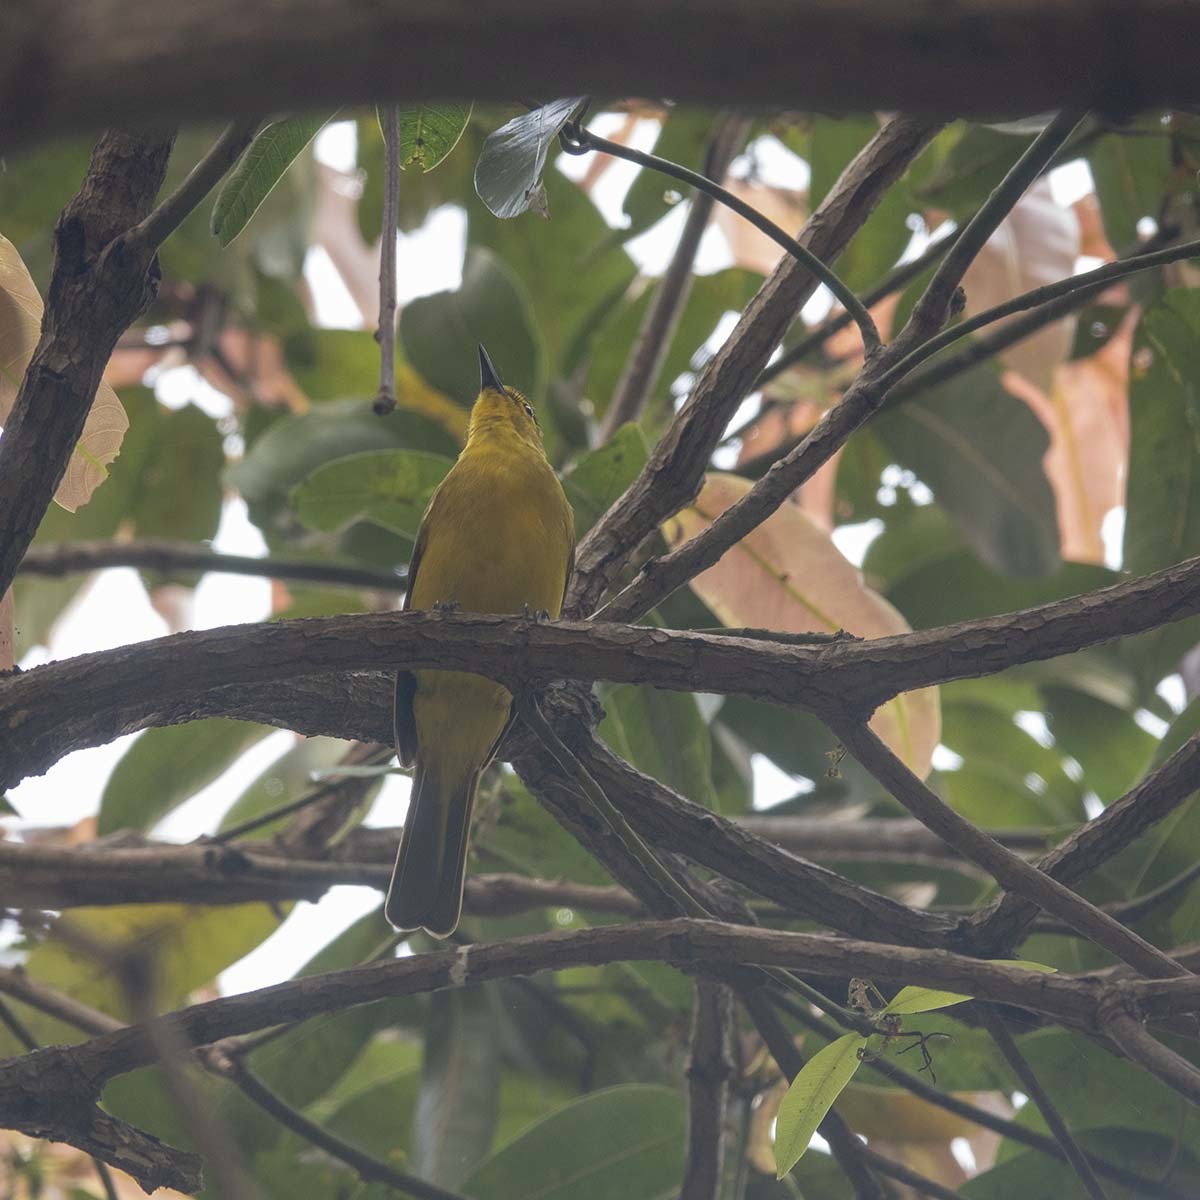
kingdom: Animalia
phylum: Chordata
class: Aves
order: Passeriformes
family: Pycnonotidae
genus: Acritillas
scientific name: Acritillas indica
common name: Yellow-browed bulbul
